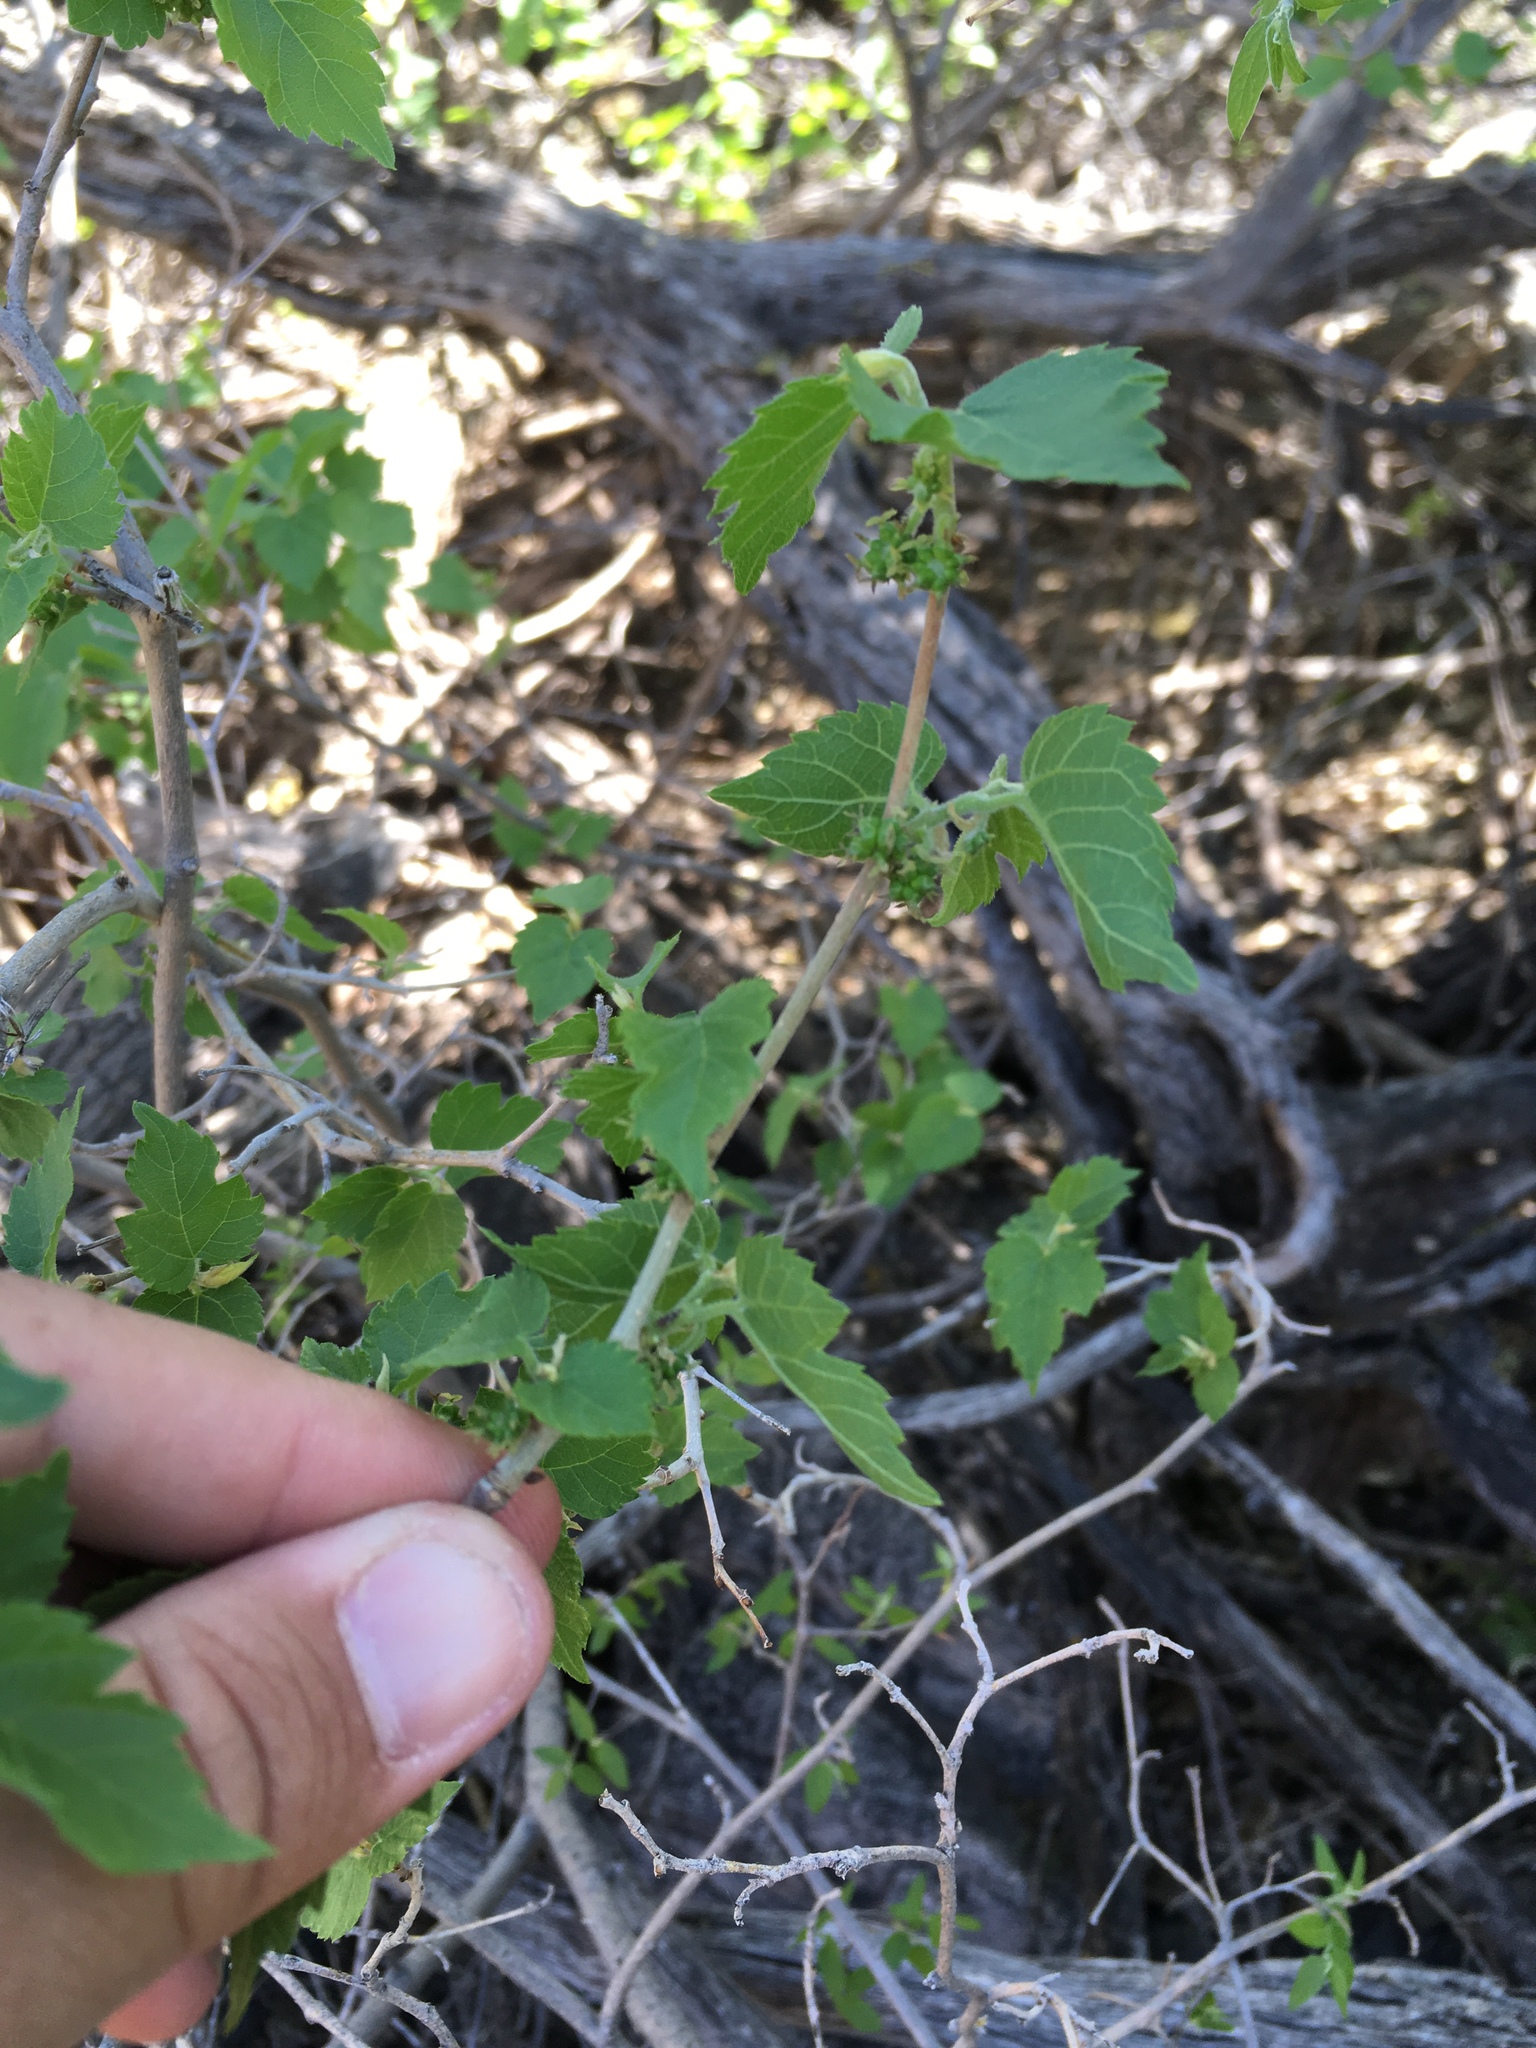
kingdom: Plantae
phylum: Tracheophyta
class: Magnoliopsida
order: Rosales
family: Moraceae
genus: Morus
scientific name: Morus microphylla
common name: Mexican mulberry
